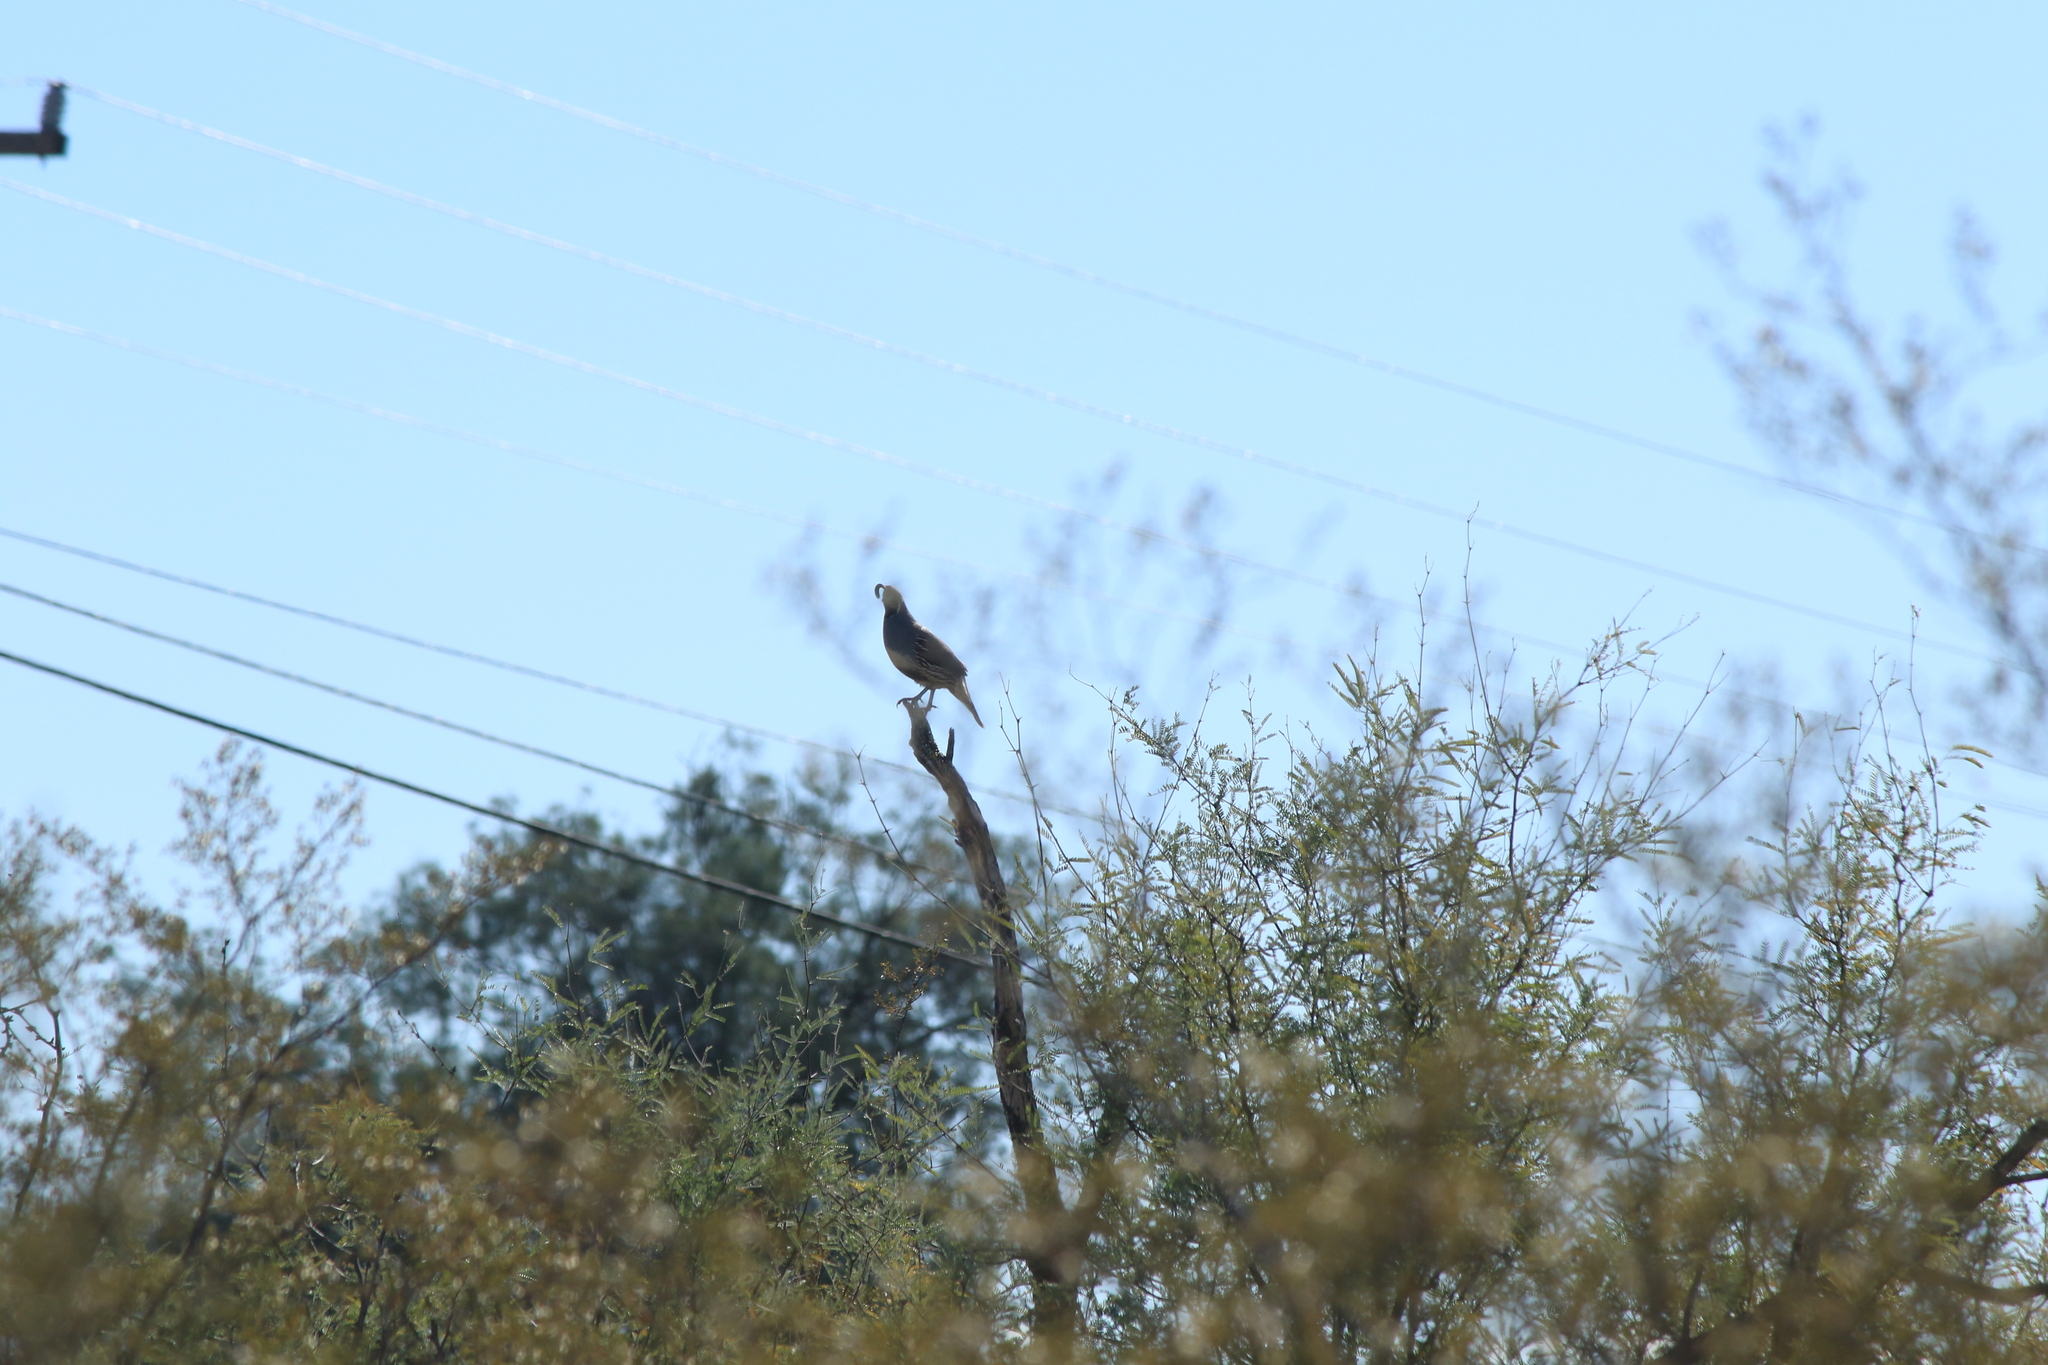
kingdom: Animalia
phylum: Chordata
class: Aves
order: Galliformes
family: Odontophoridae
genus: Callipepla
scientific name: Callipepla gambelii
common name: Gambel's quail
